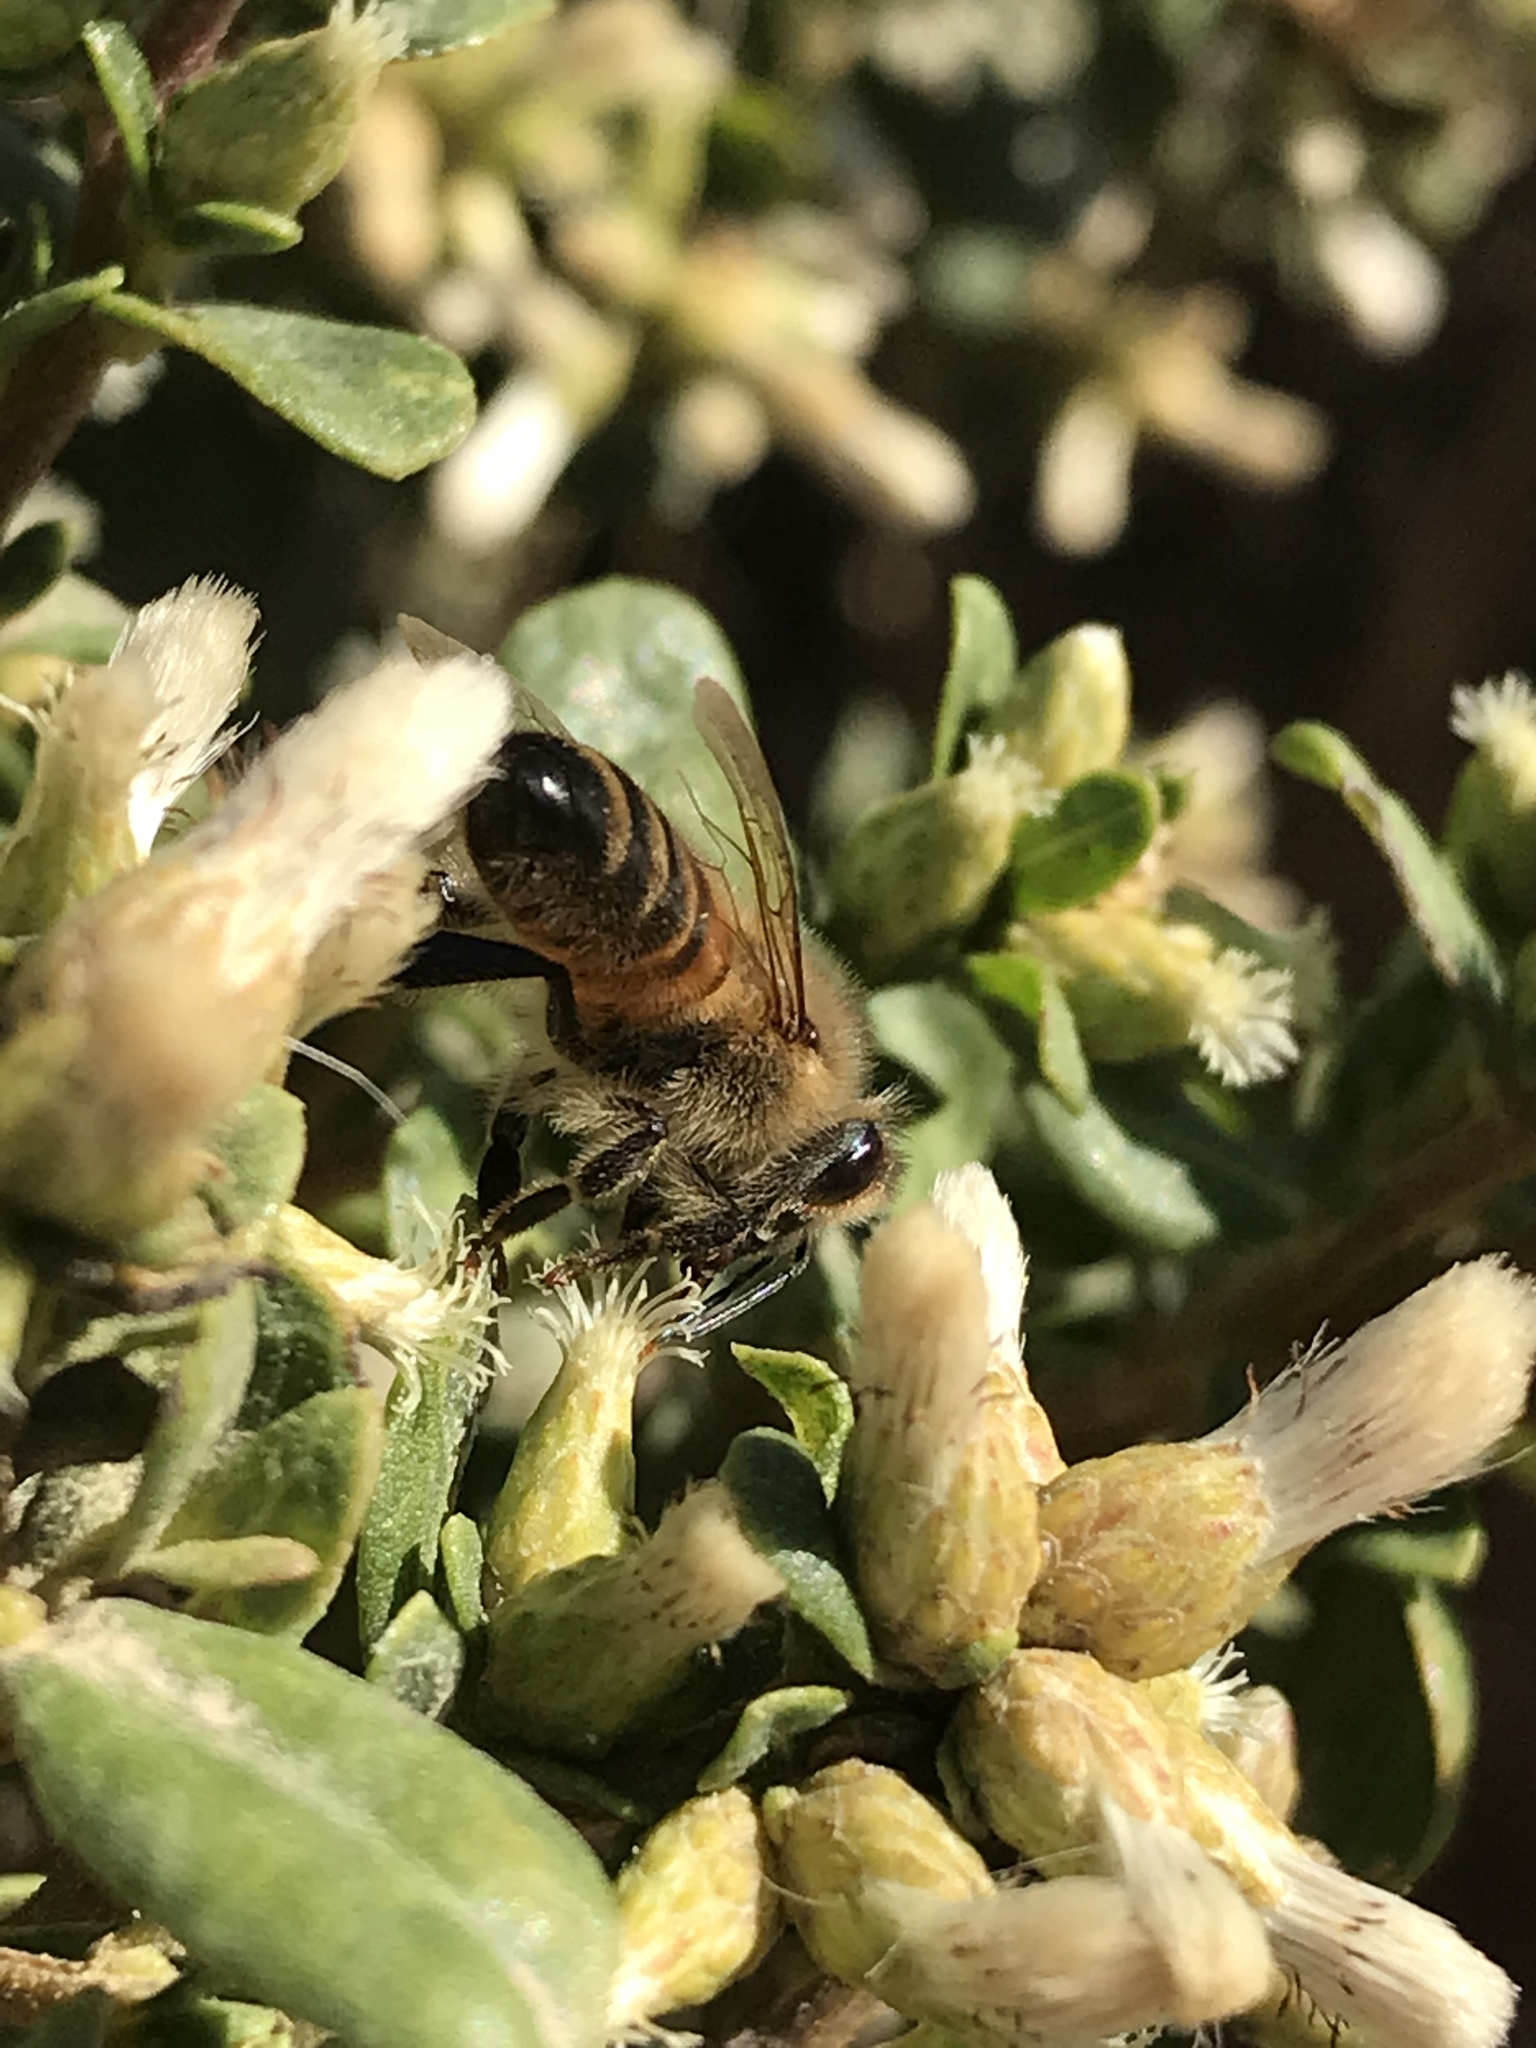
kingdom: Animalia
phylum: Arthropoda
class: Insecta
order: Hymenoptera
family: Apidae
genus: Apis
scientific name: Apis mellifera
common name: Honey bee
